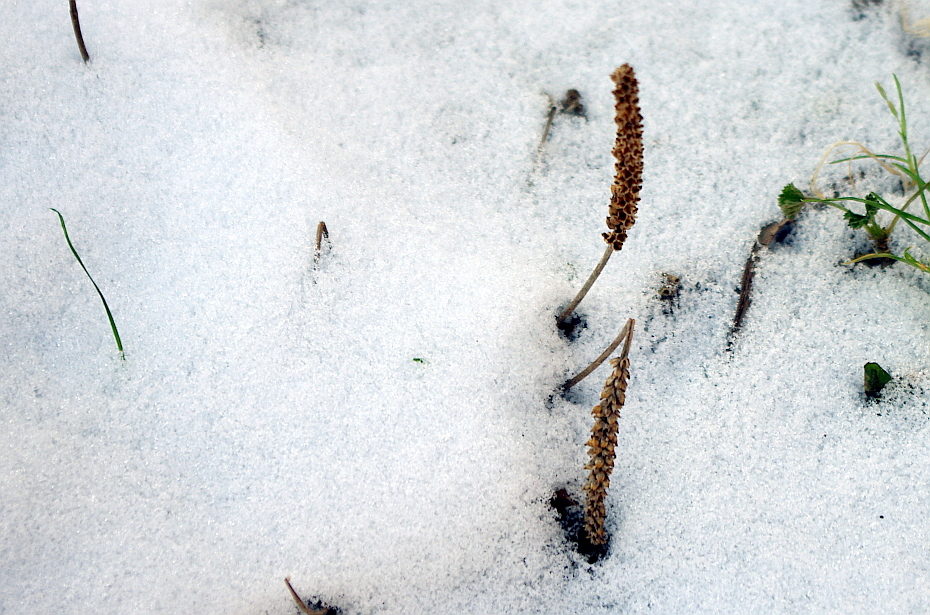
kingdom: Plantae
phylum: Tracheophyta
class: Magnoliopsida
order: Lamiales
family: Plantaginaceae
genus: Plantago
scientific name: Plantago major
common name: Common plantain
